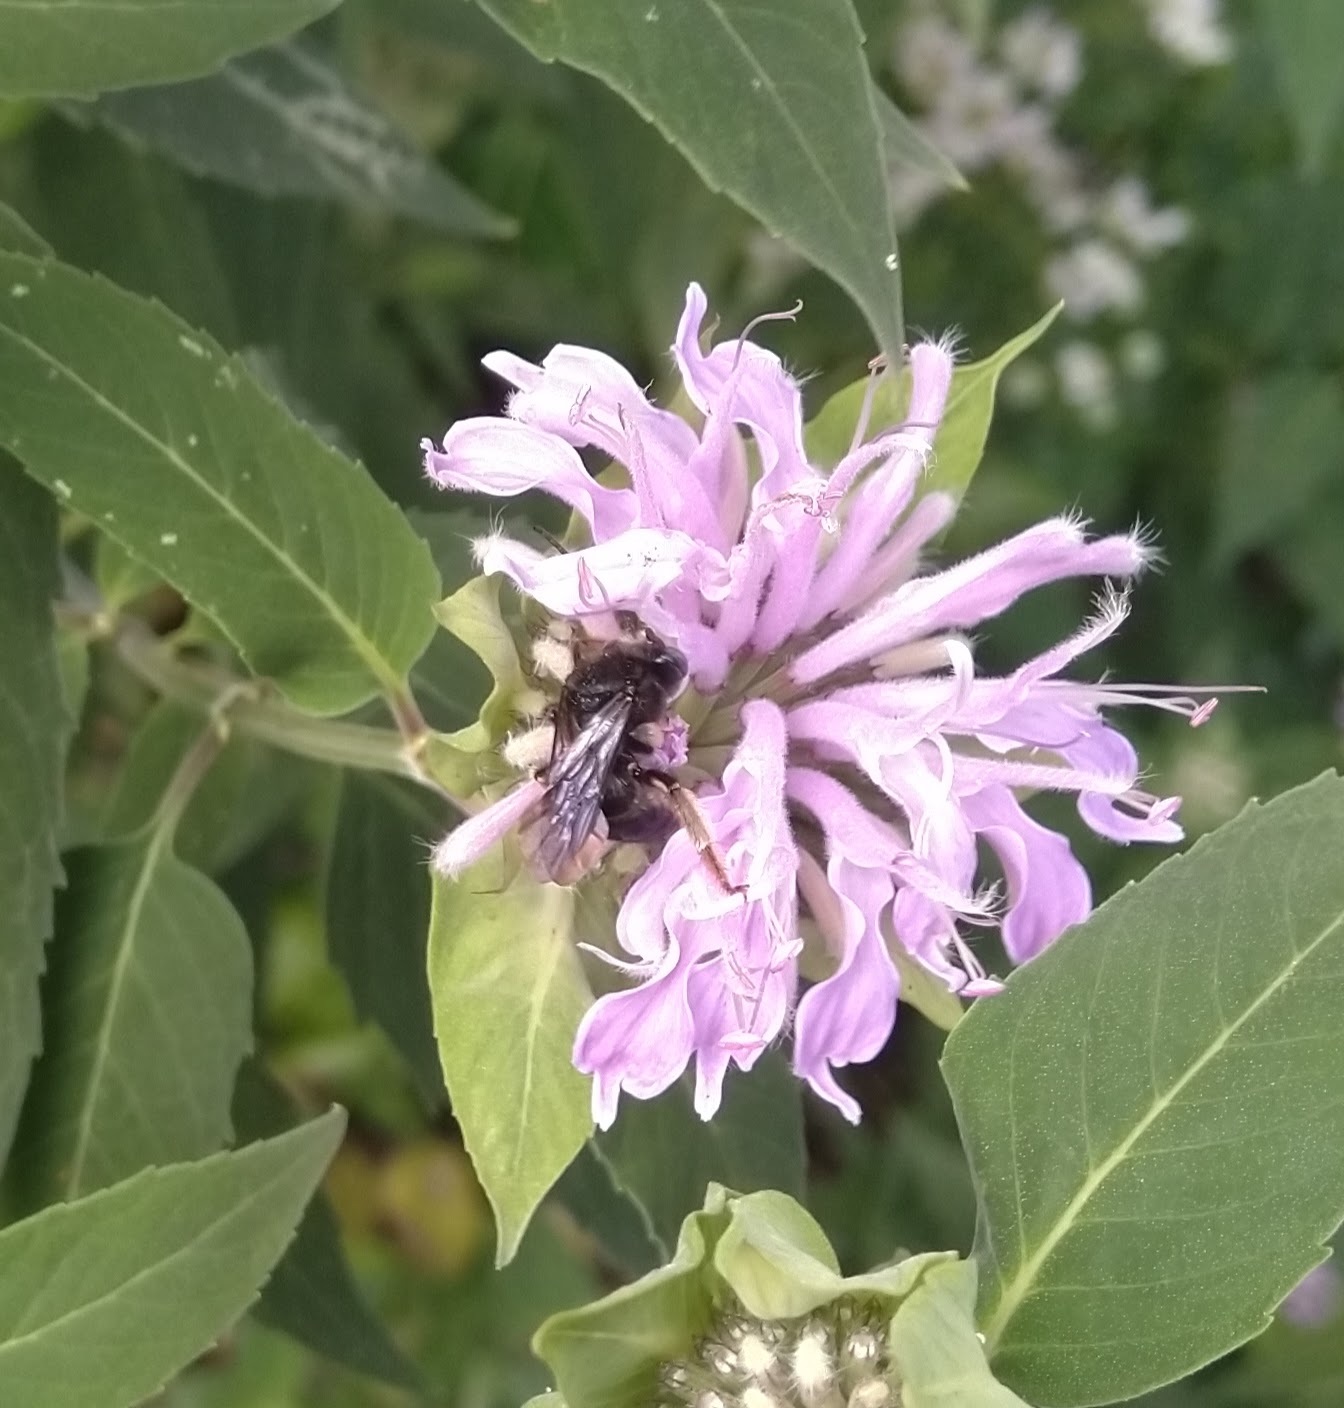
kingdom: Animalia
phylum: Arthropoda
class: Insecta
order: Hymenoptera
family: Apidae
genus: Melissodes
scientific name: Melissodes bimaculatus
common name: Two-spotted long-horned bee
